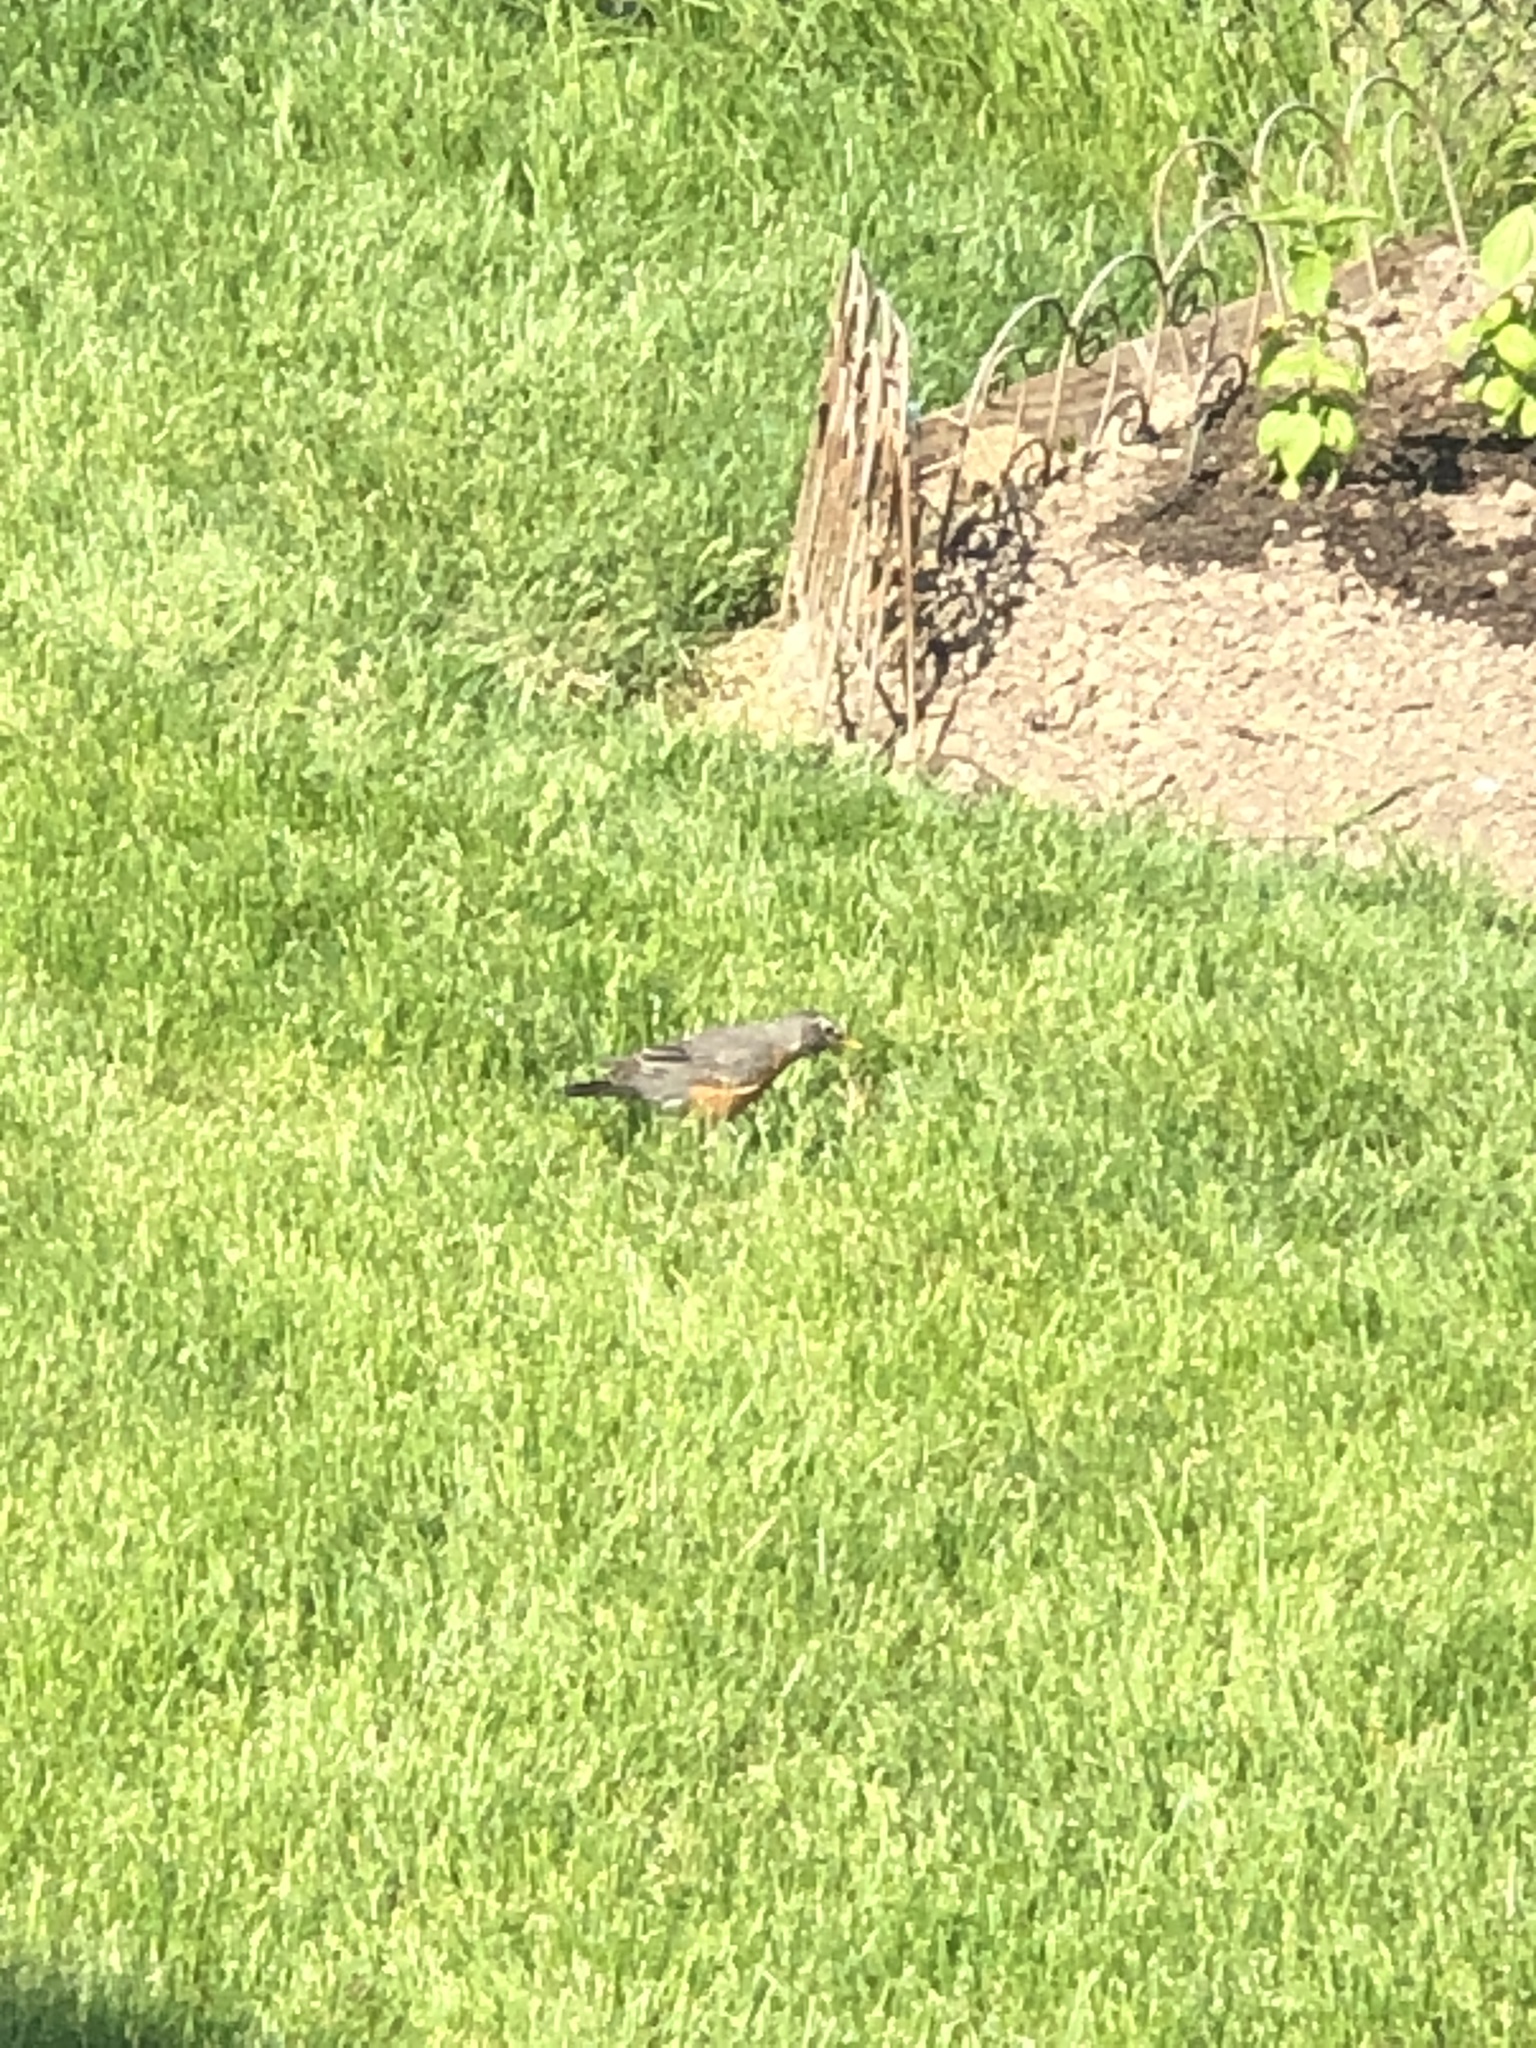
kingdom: Animalia
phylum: Chordata
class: Aves
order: Passeriformes
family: Turdidae
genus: Turdus
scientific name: Turdus migratorius
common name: American robin
